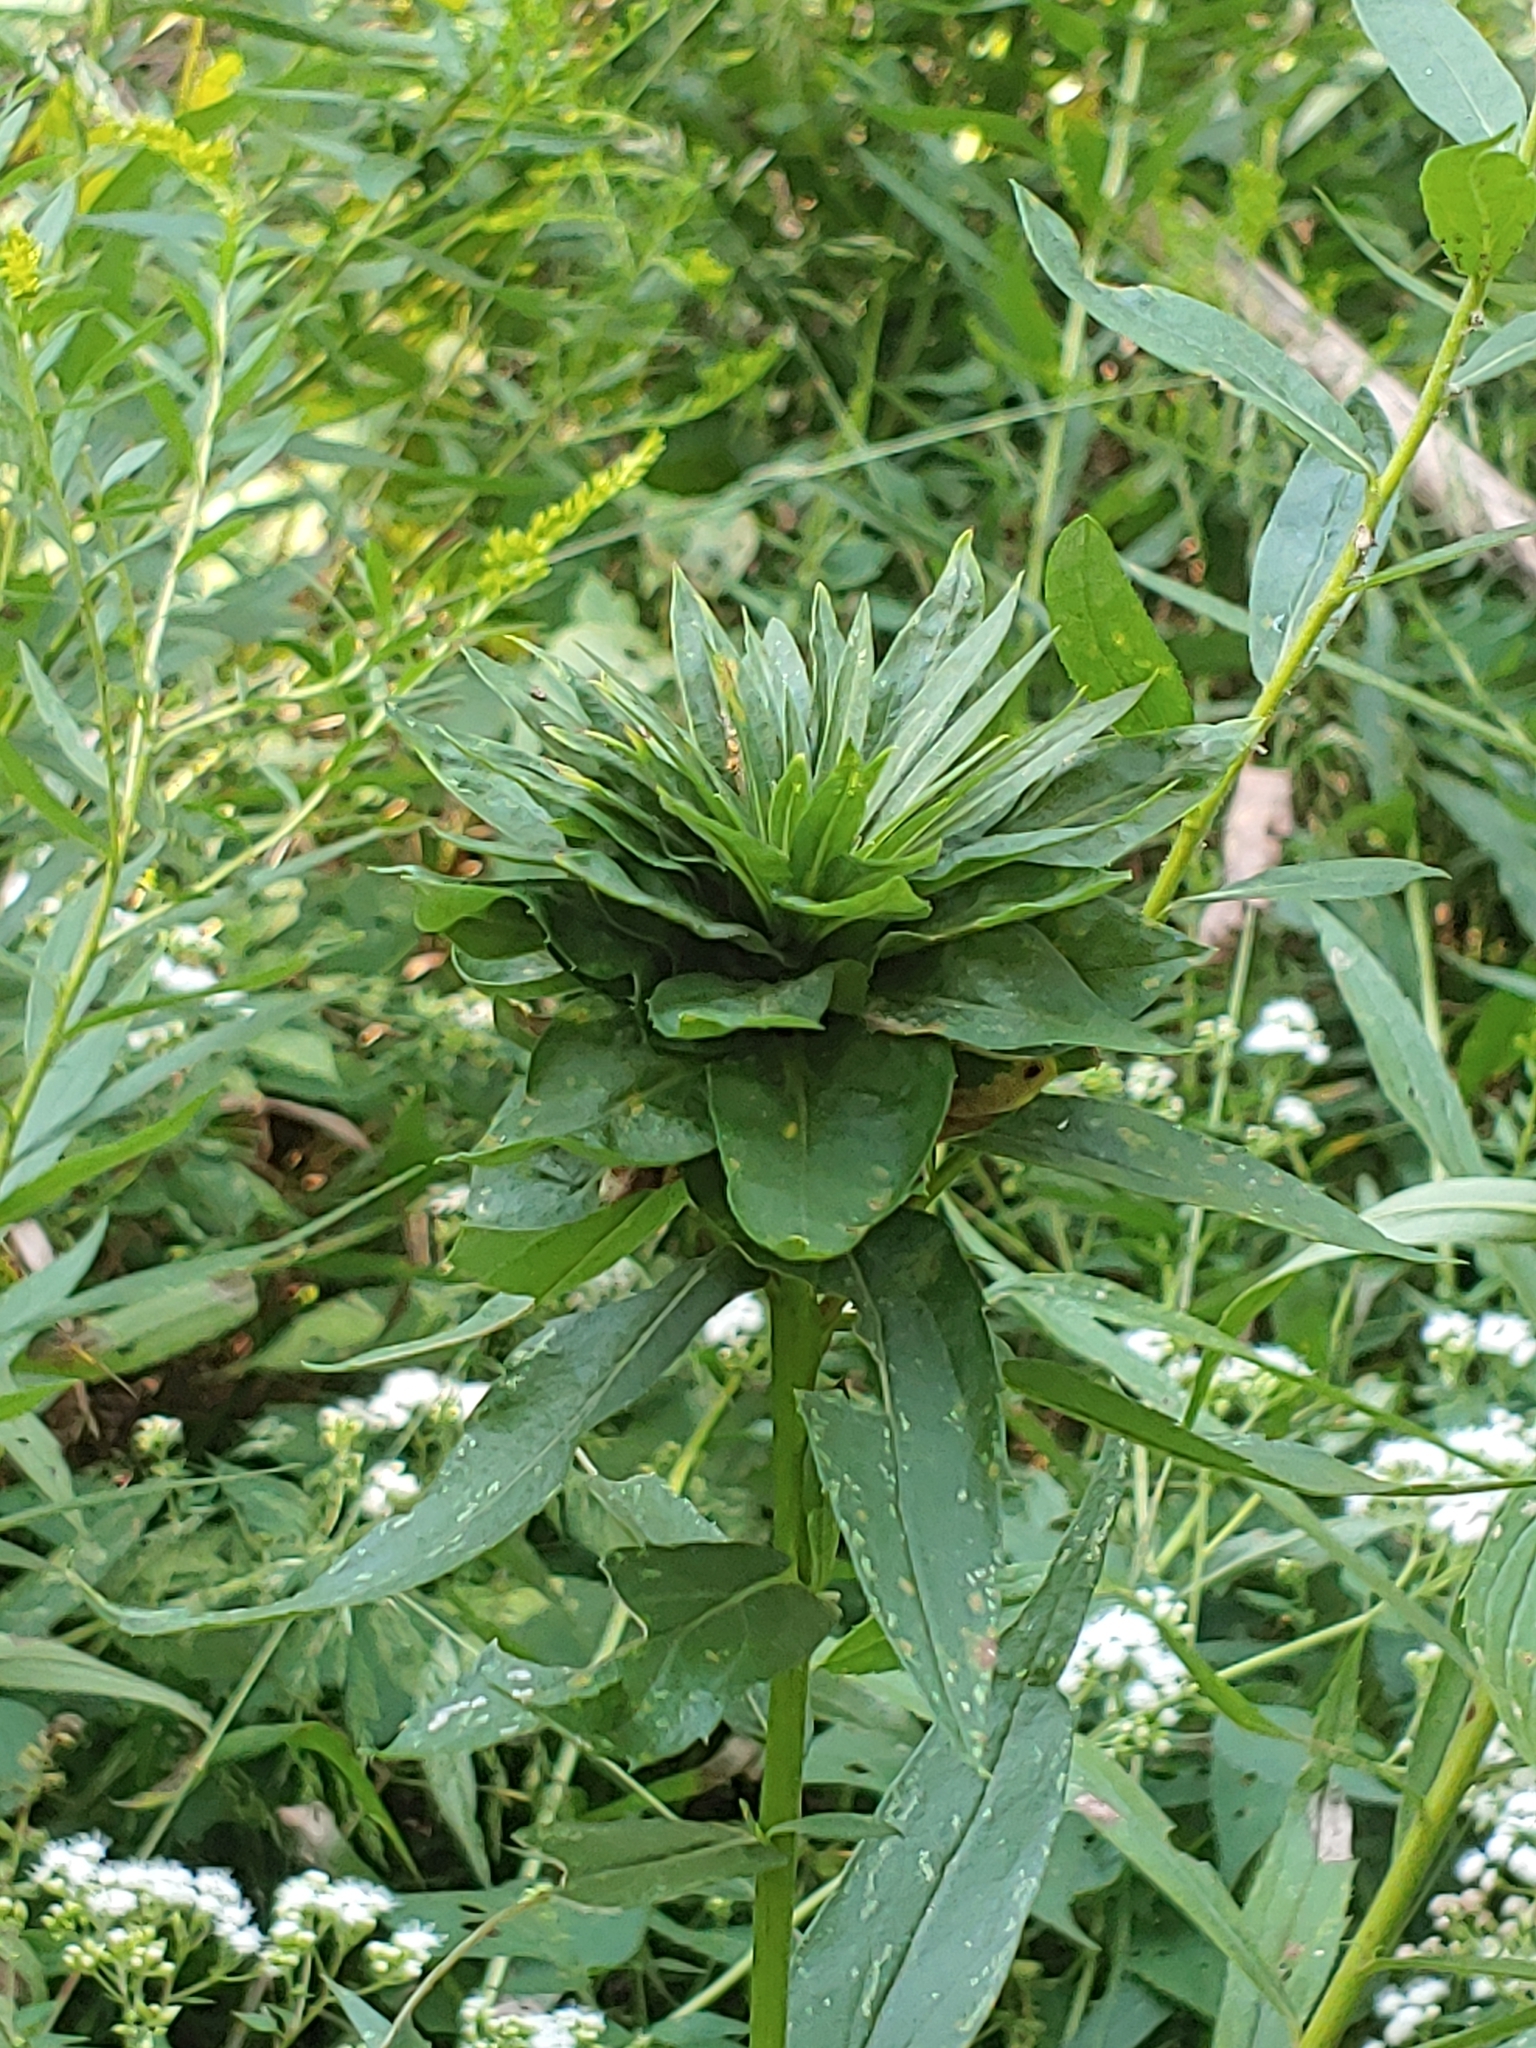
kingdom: Animalia
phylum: Arthropoda
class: Insecta
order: Diptera
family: Cecidomyiidae
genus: Rhopalomyia
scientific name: Rhopalomyia solidaginis
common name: Goldenrod bunch gall midge
